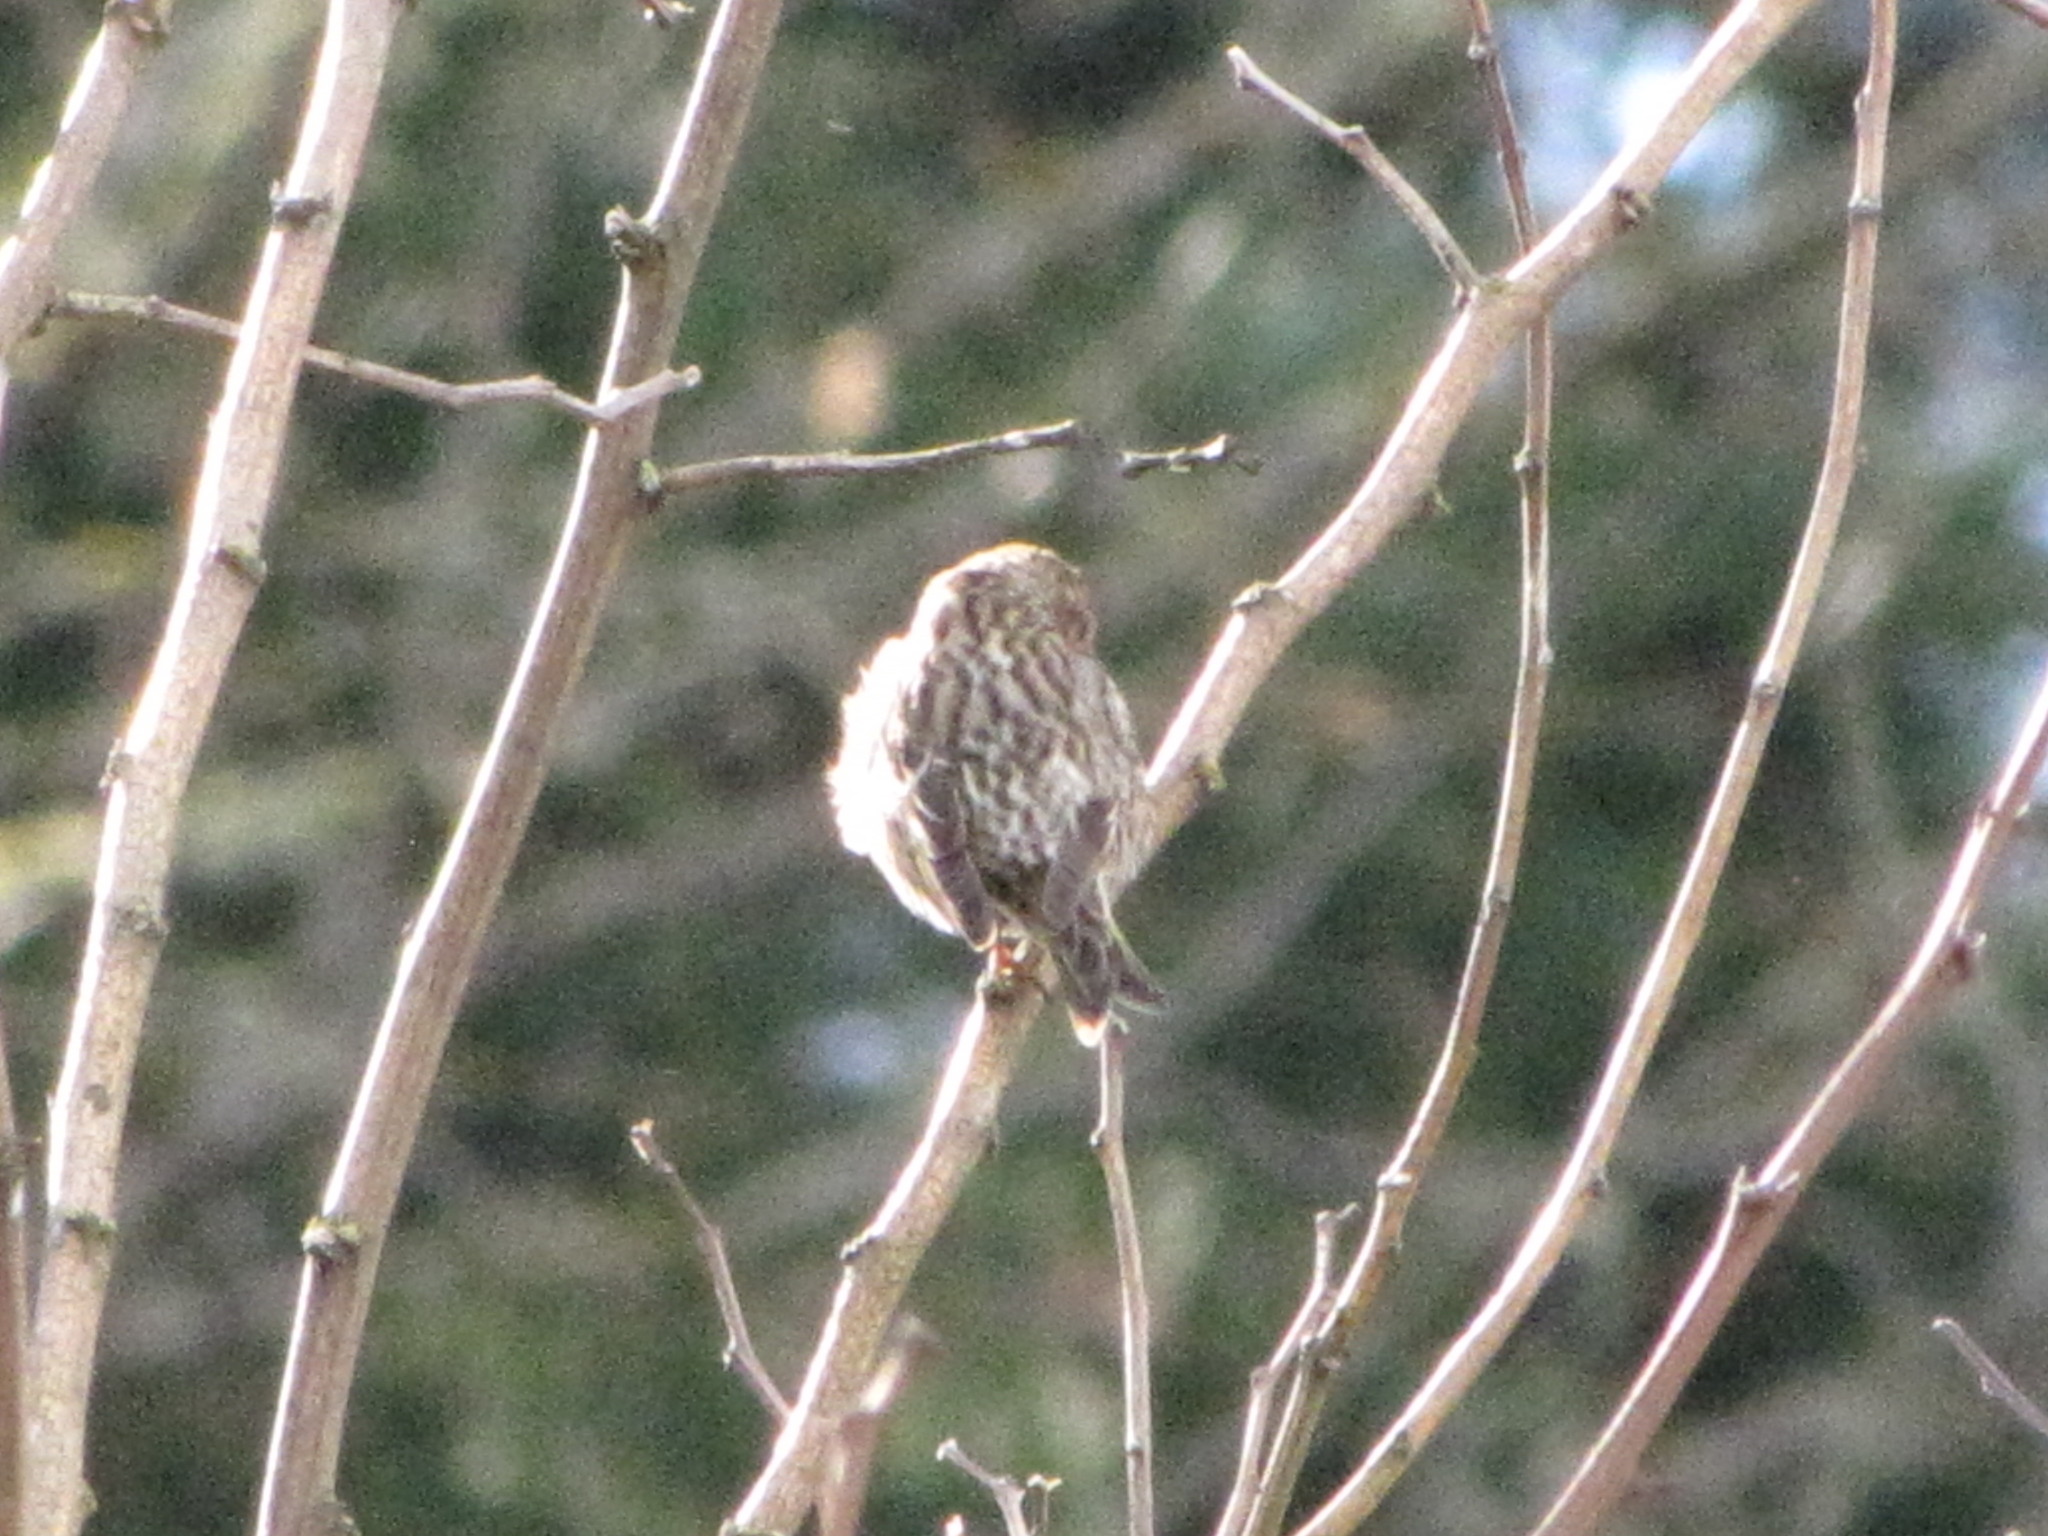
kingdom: Animalia
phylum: Chordata
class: Aves
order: Passeriformes
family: Fringillidae
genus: Spinus
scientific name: Spinus pinus
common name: Pine siskin
